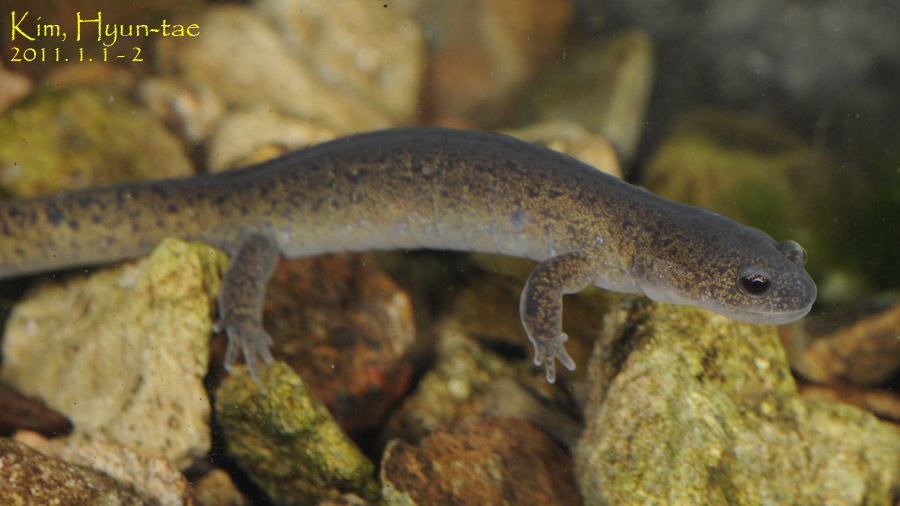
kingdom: Animalia
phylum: Chordata
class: Amphibia
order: Caudata
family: Hynobiidae
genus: Hynobius
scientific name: Hynobius leechii
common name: Gensan salamander
